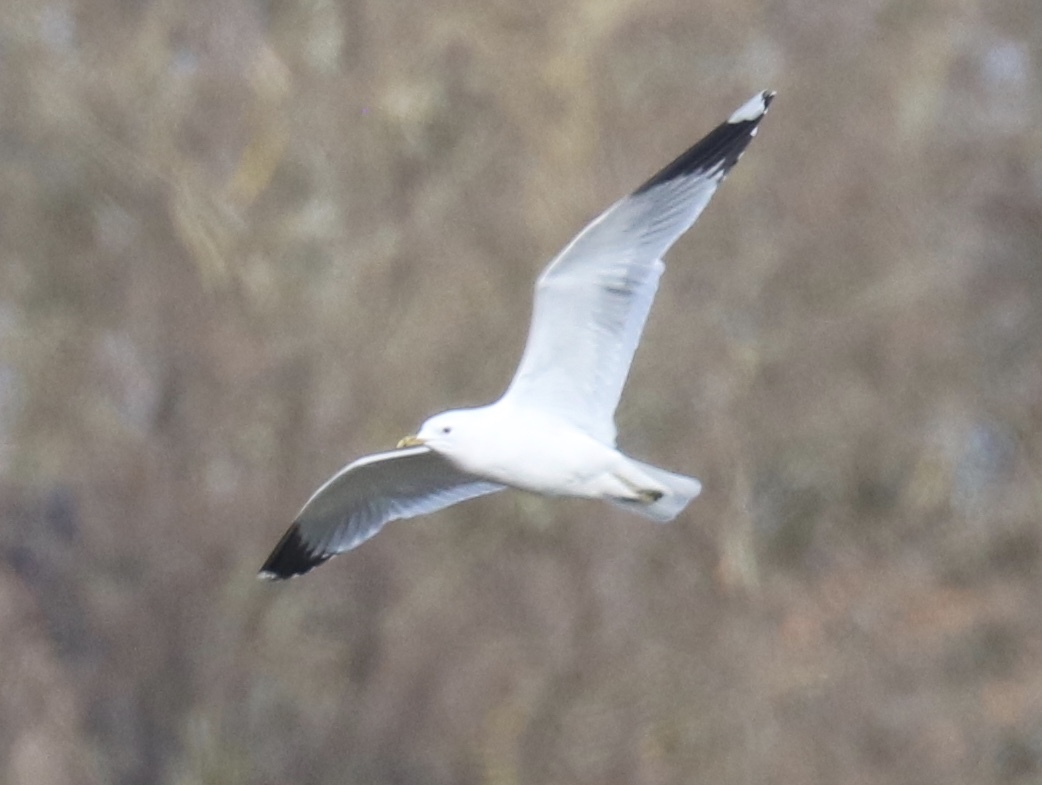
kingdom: Animalia
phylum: Chordata
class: Aves
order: Charadriiformes
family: Laridae
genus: Larus
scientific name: Larus canus
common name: Mew gull
